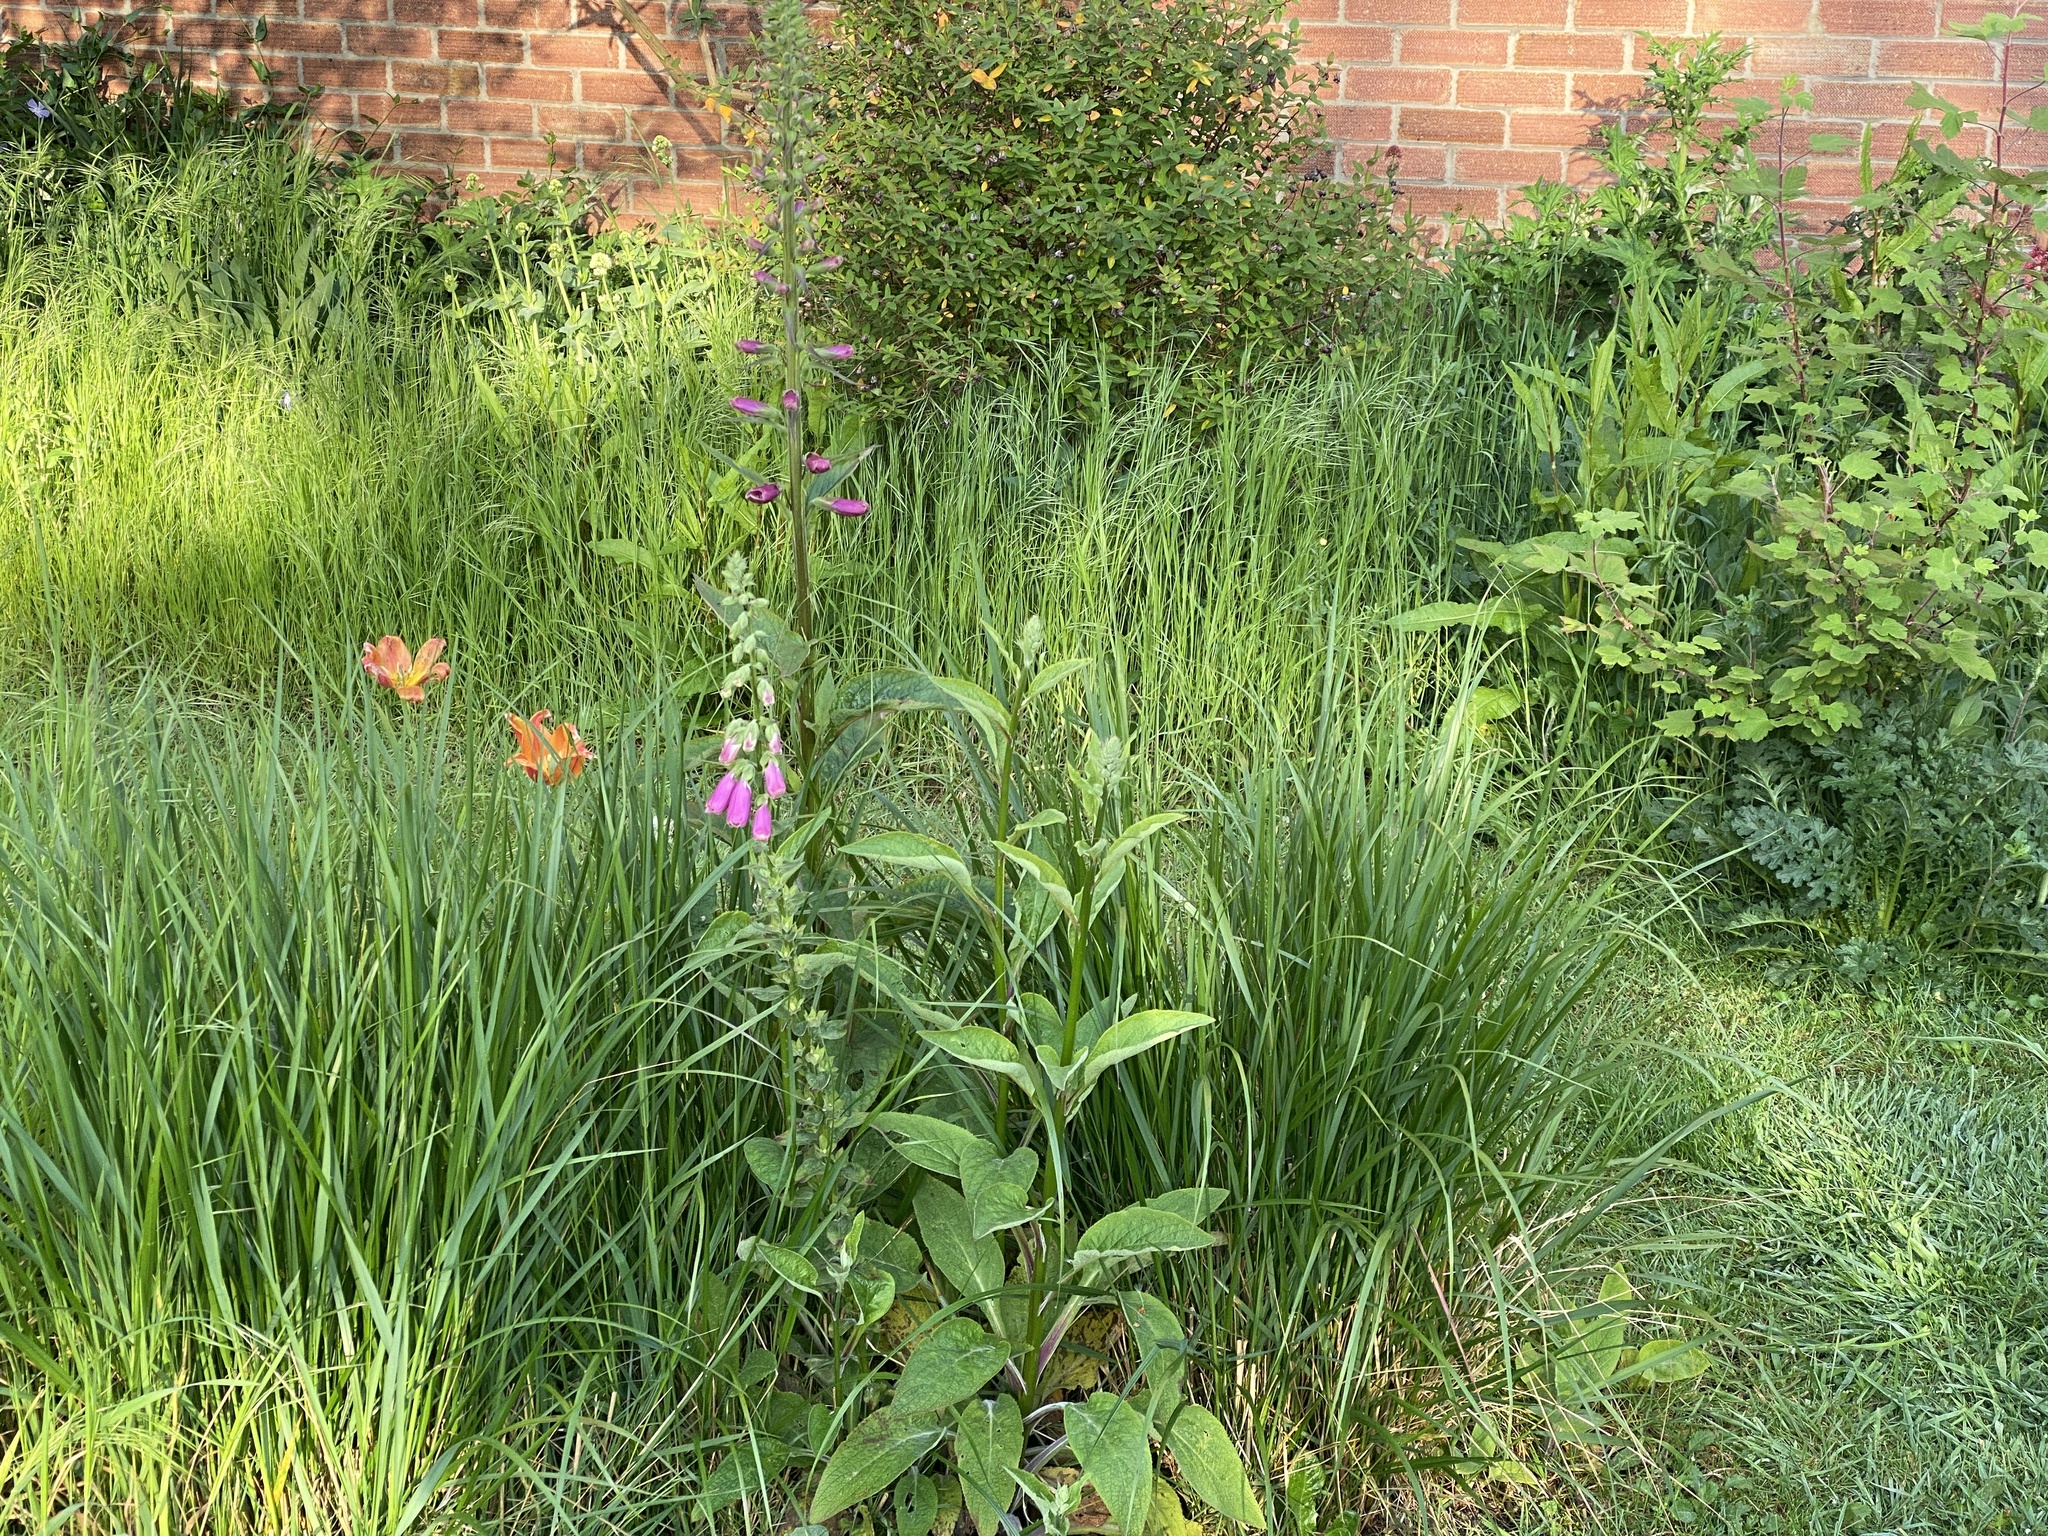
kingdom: Plantae
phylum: Tracheophyta
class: Magnoliopsida
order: Lamiales
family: Plantaginaceae
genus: Digitalis
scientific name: Digitalis purpurea
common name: Foxglove
